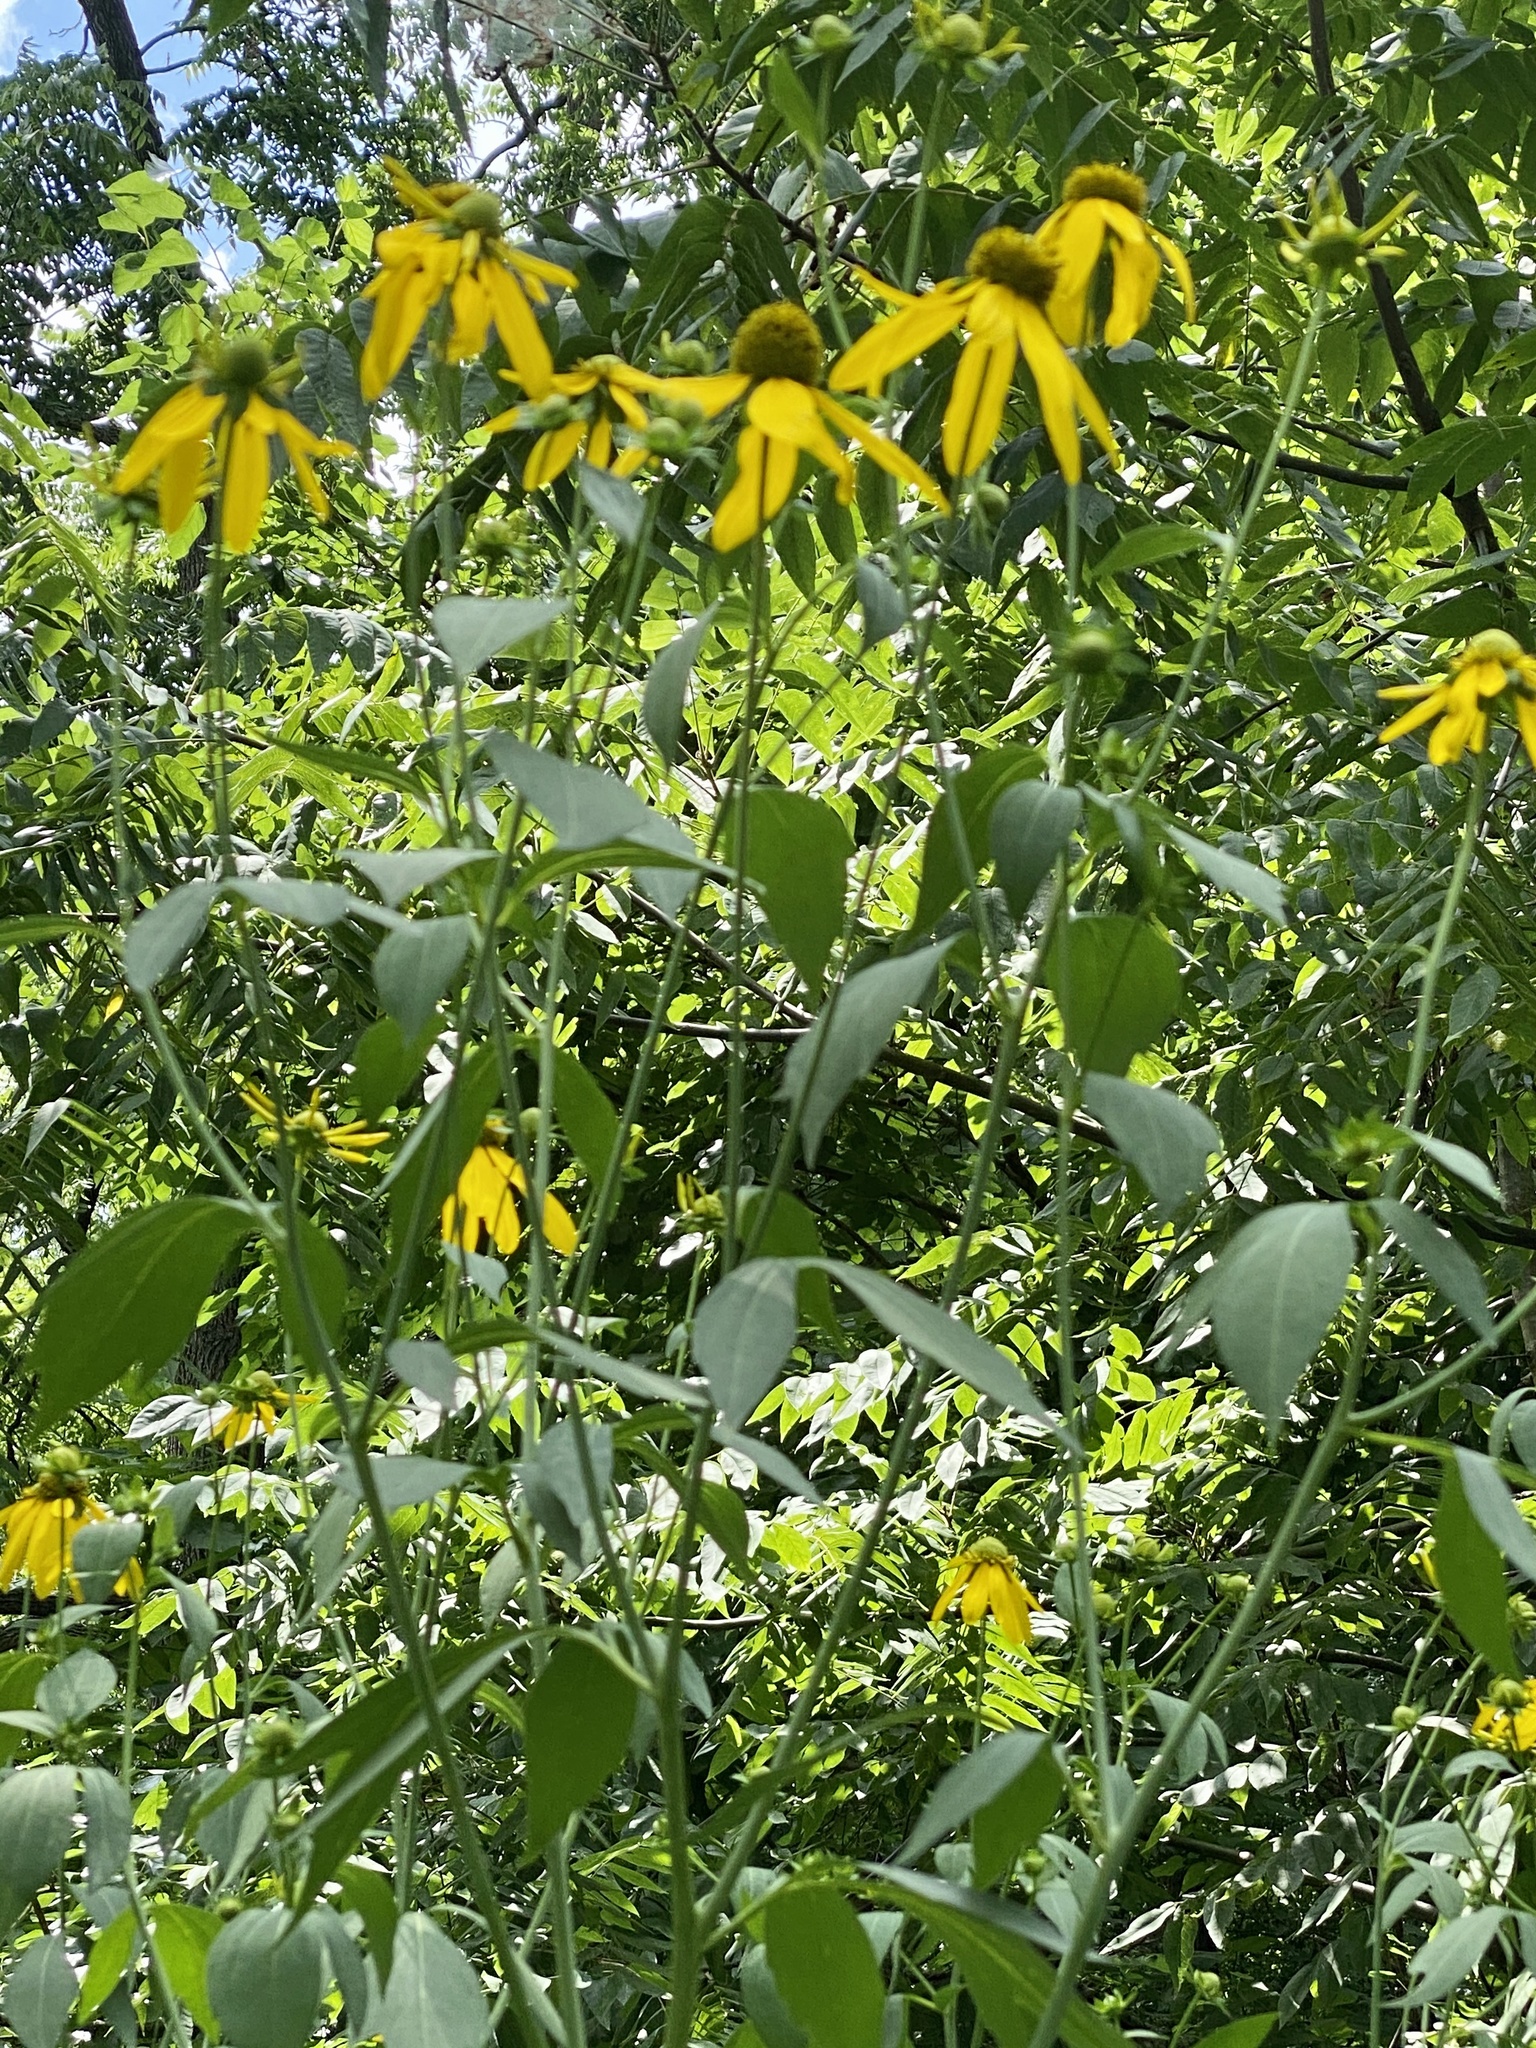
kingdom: Plantae
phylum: Tracheophyta
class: Magnoliopsida
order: Asterales
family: Asteraceae
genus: Rudbeckia
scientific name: Rudbeckia laciniata
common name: Coneflower
